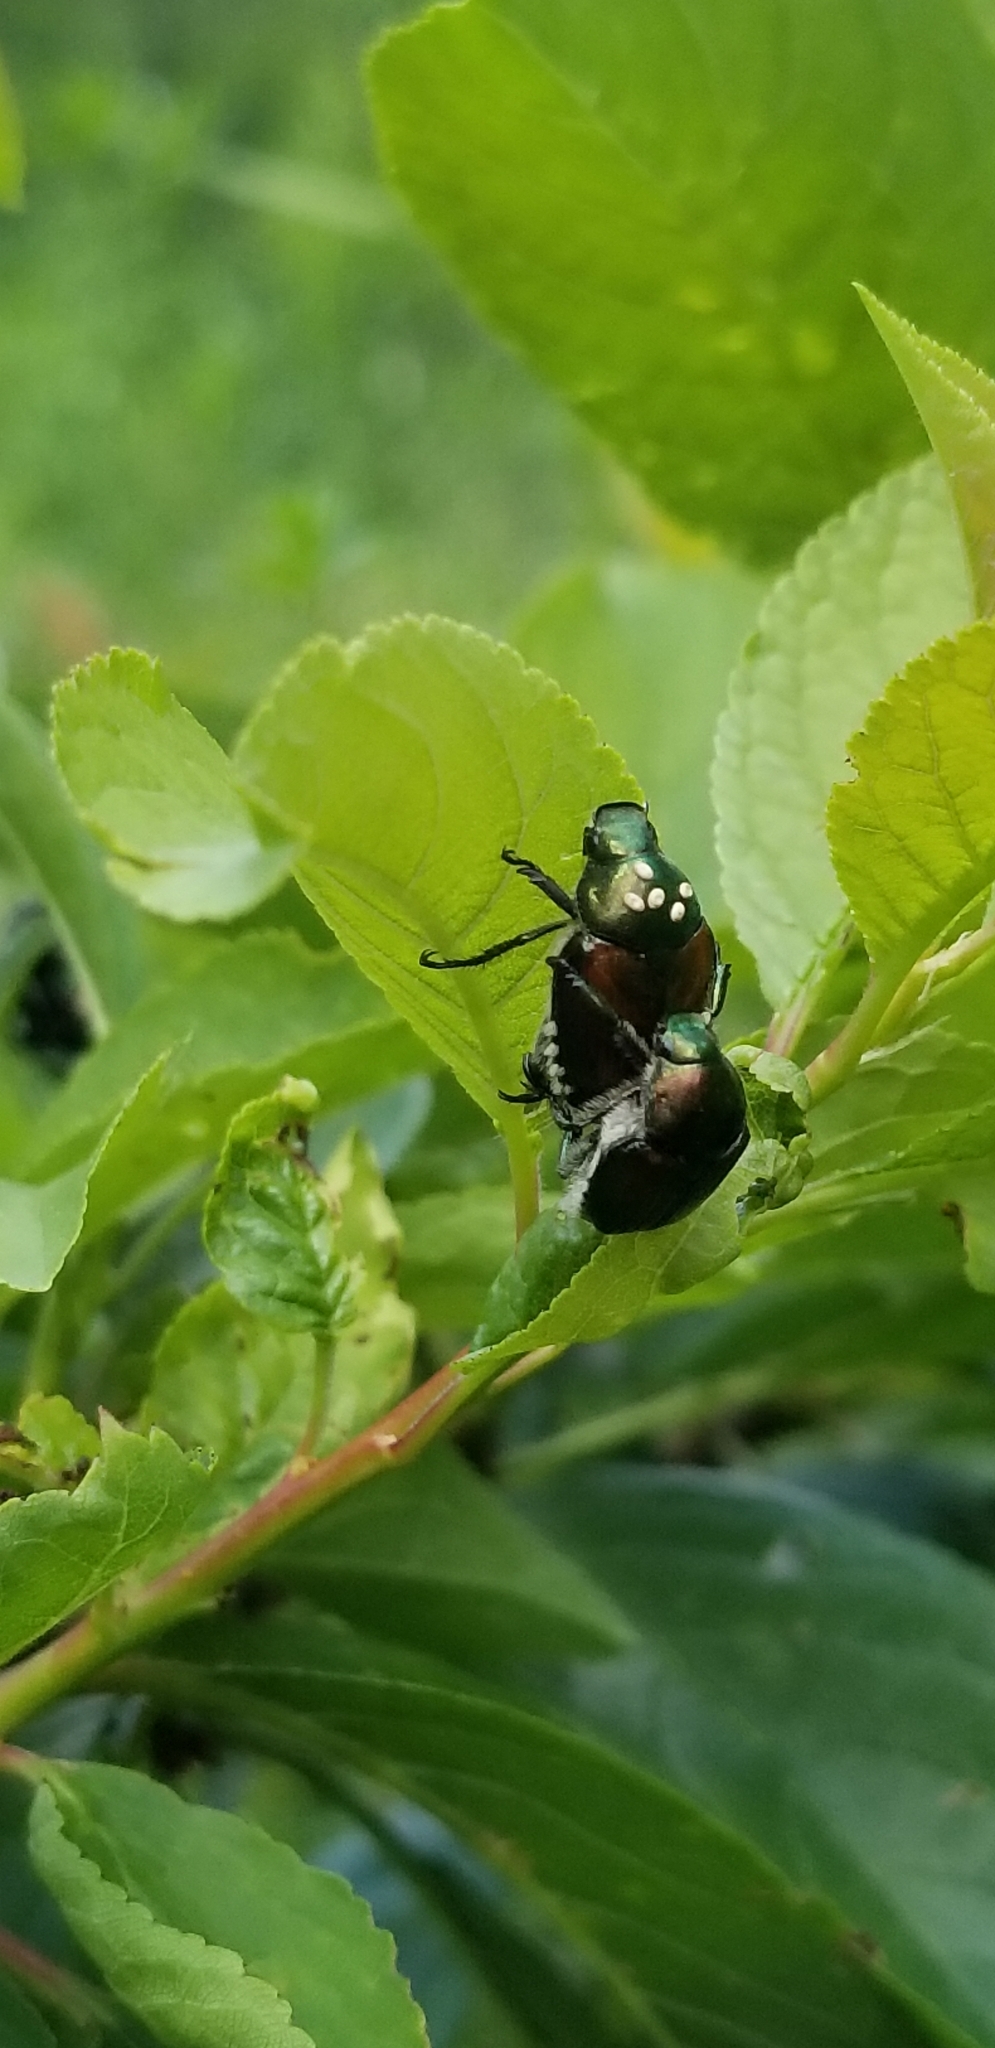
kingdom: Animalia
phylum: Arthropoda
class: Insecta
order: Coleoptera
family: Scarabaeidae
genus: Popillia
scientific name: Popillia japonica
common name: Japanese beetle
